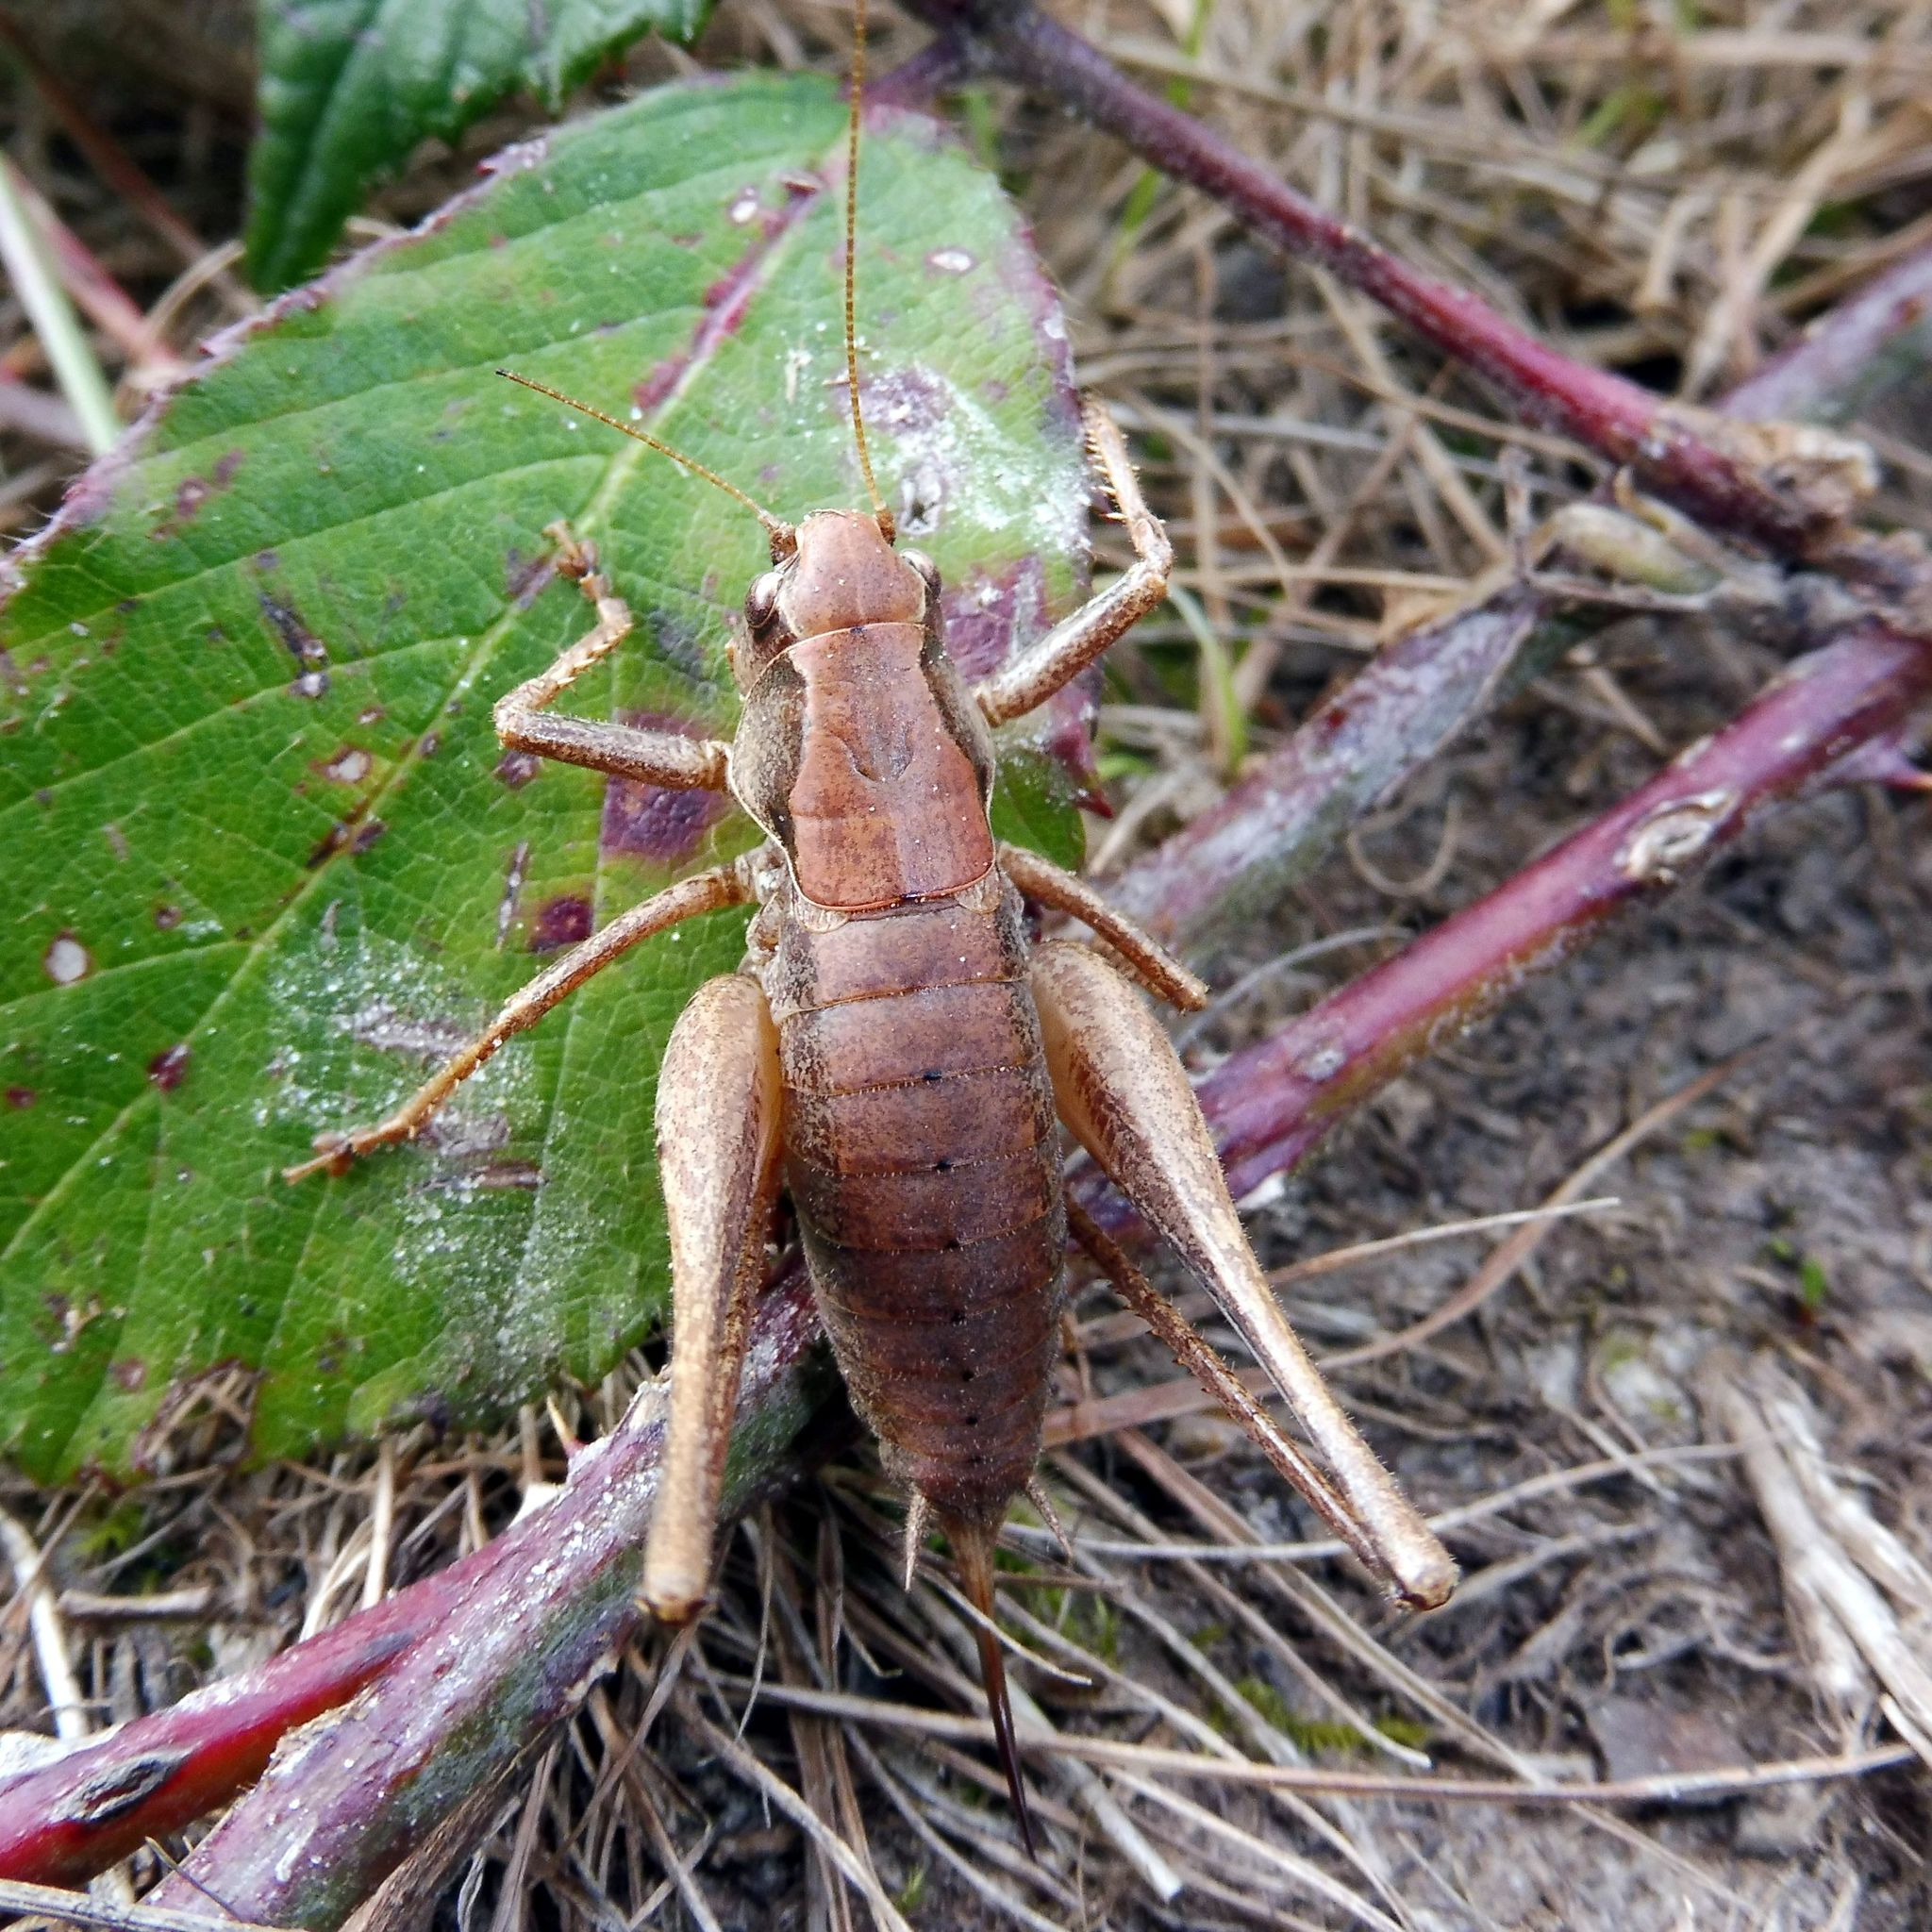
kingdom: Animalia
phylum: Arthropoda
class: Insecta
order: Orthoptera
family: Tettigoniidae
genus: Pholidoptera
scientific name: Pholidoptera griseoaptera
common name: Dark bush-cricket
